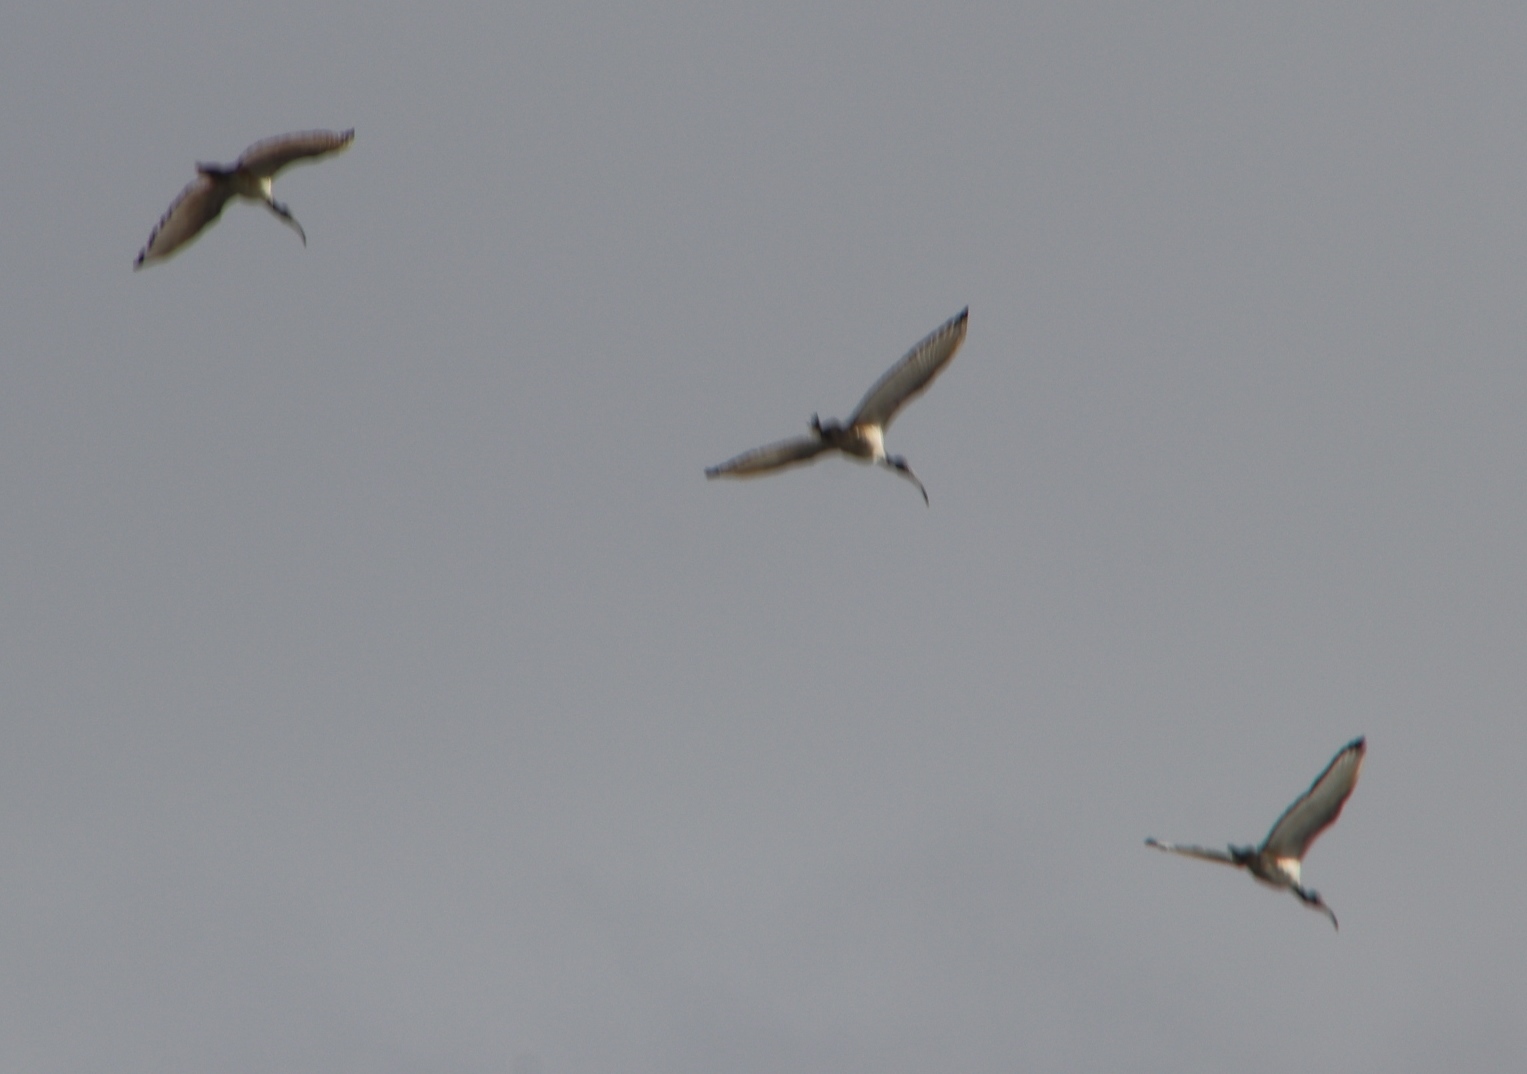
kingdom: Animalia
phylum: Chordata
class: Aves
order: Pelecaniformes
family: Threskiornithidae
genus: Threskiornis
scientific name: Threskiornis aethiopicus
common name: Sacred ibis
